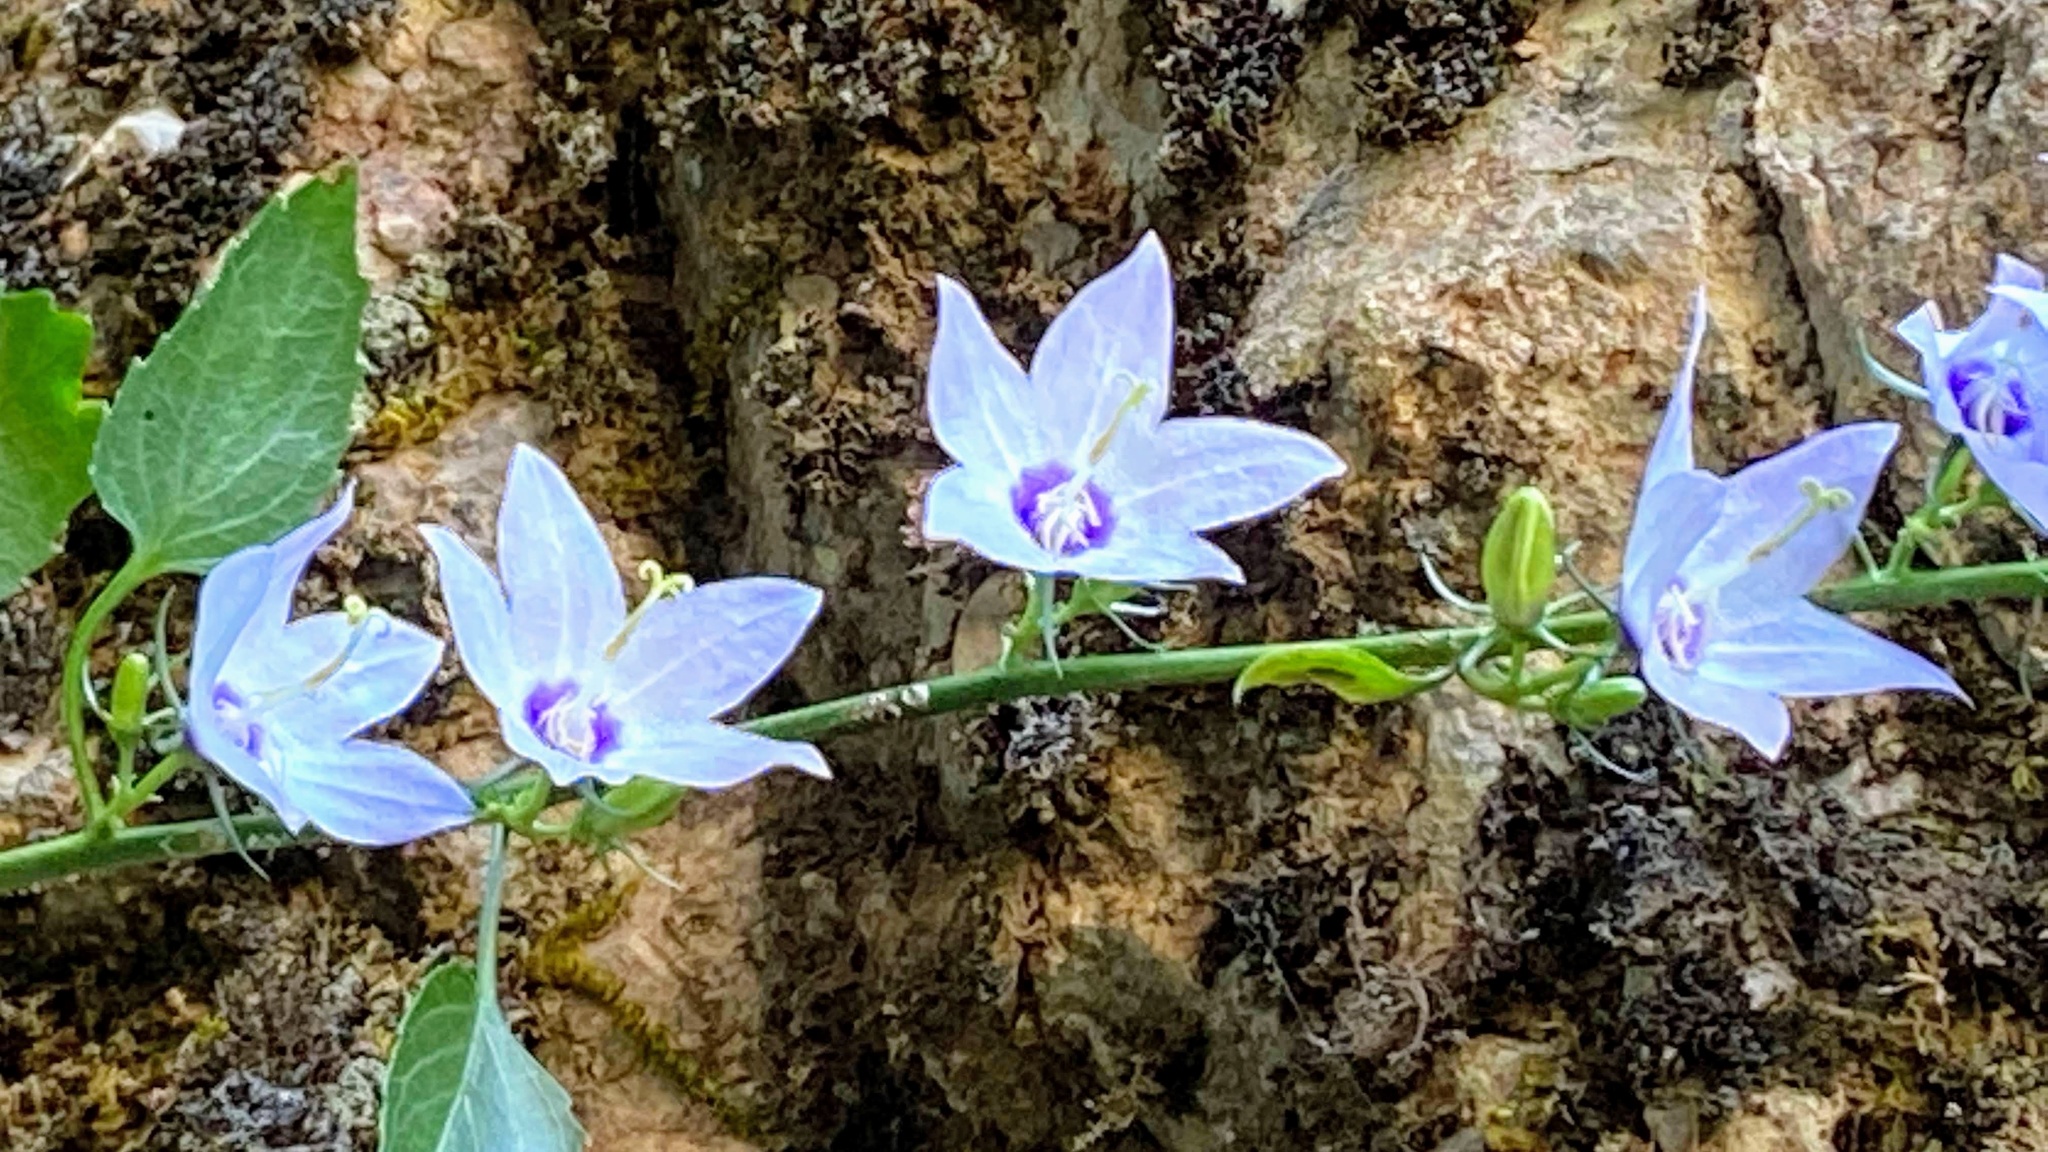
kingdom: Plantae
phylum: Tracheophyta
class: Magnoliopsida
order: Asterales
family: Campanulaceae
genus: Campanula
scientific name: Campanula versicolor
